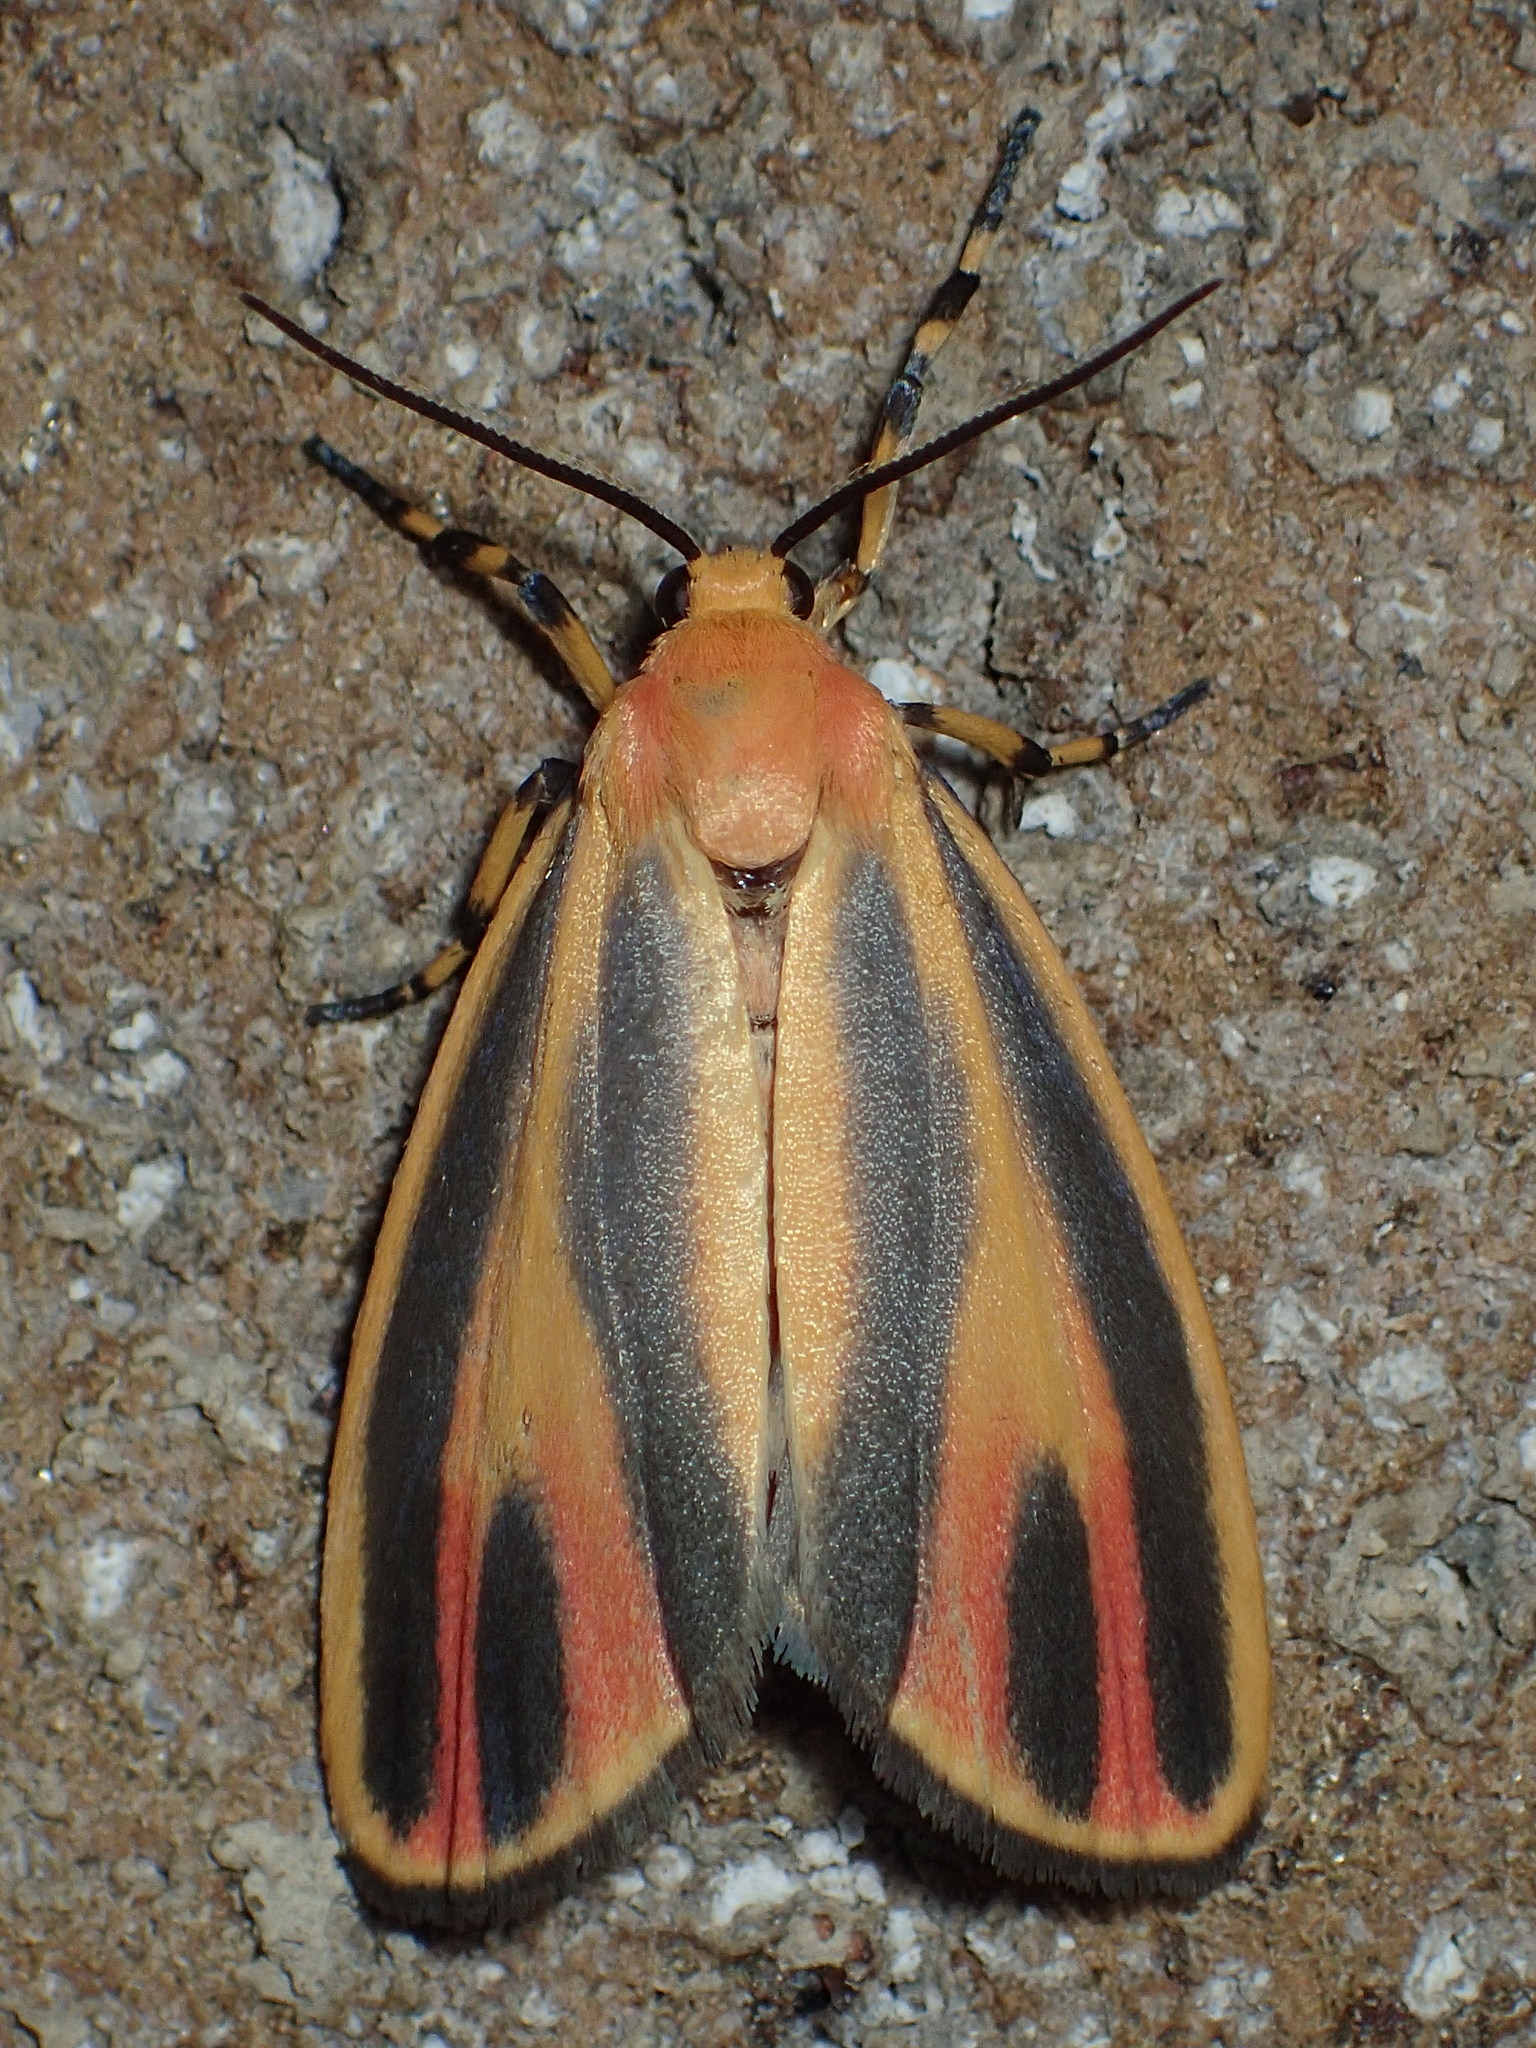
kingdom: Animalia
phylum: Arthropoda
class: Insecta
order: Lepidoptera
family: Erebidae
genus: Hypoprepia
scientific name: Hypoprepia fucosa
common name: Painted lichen moth
